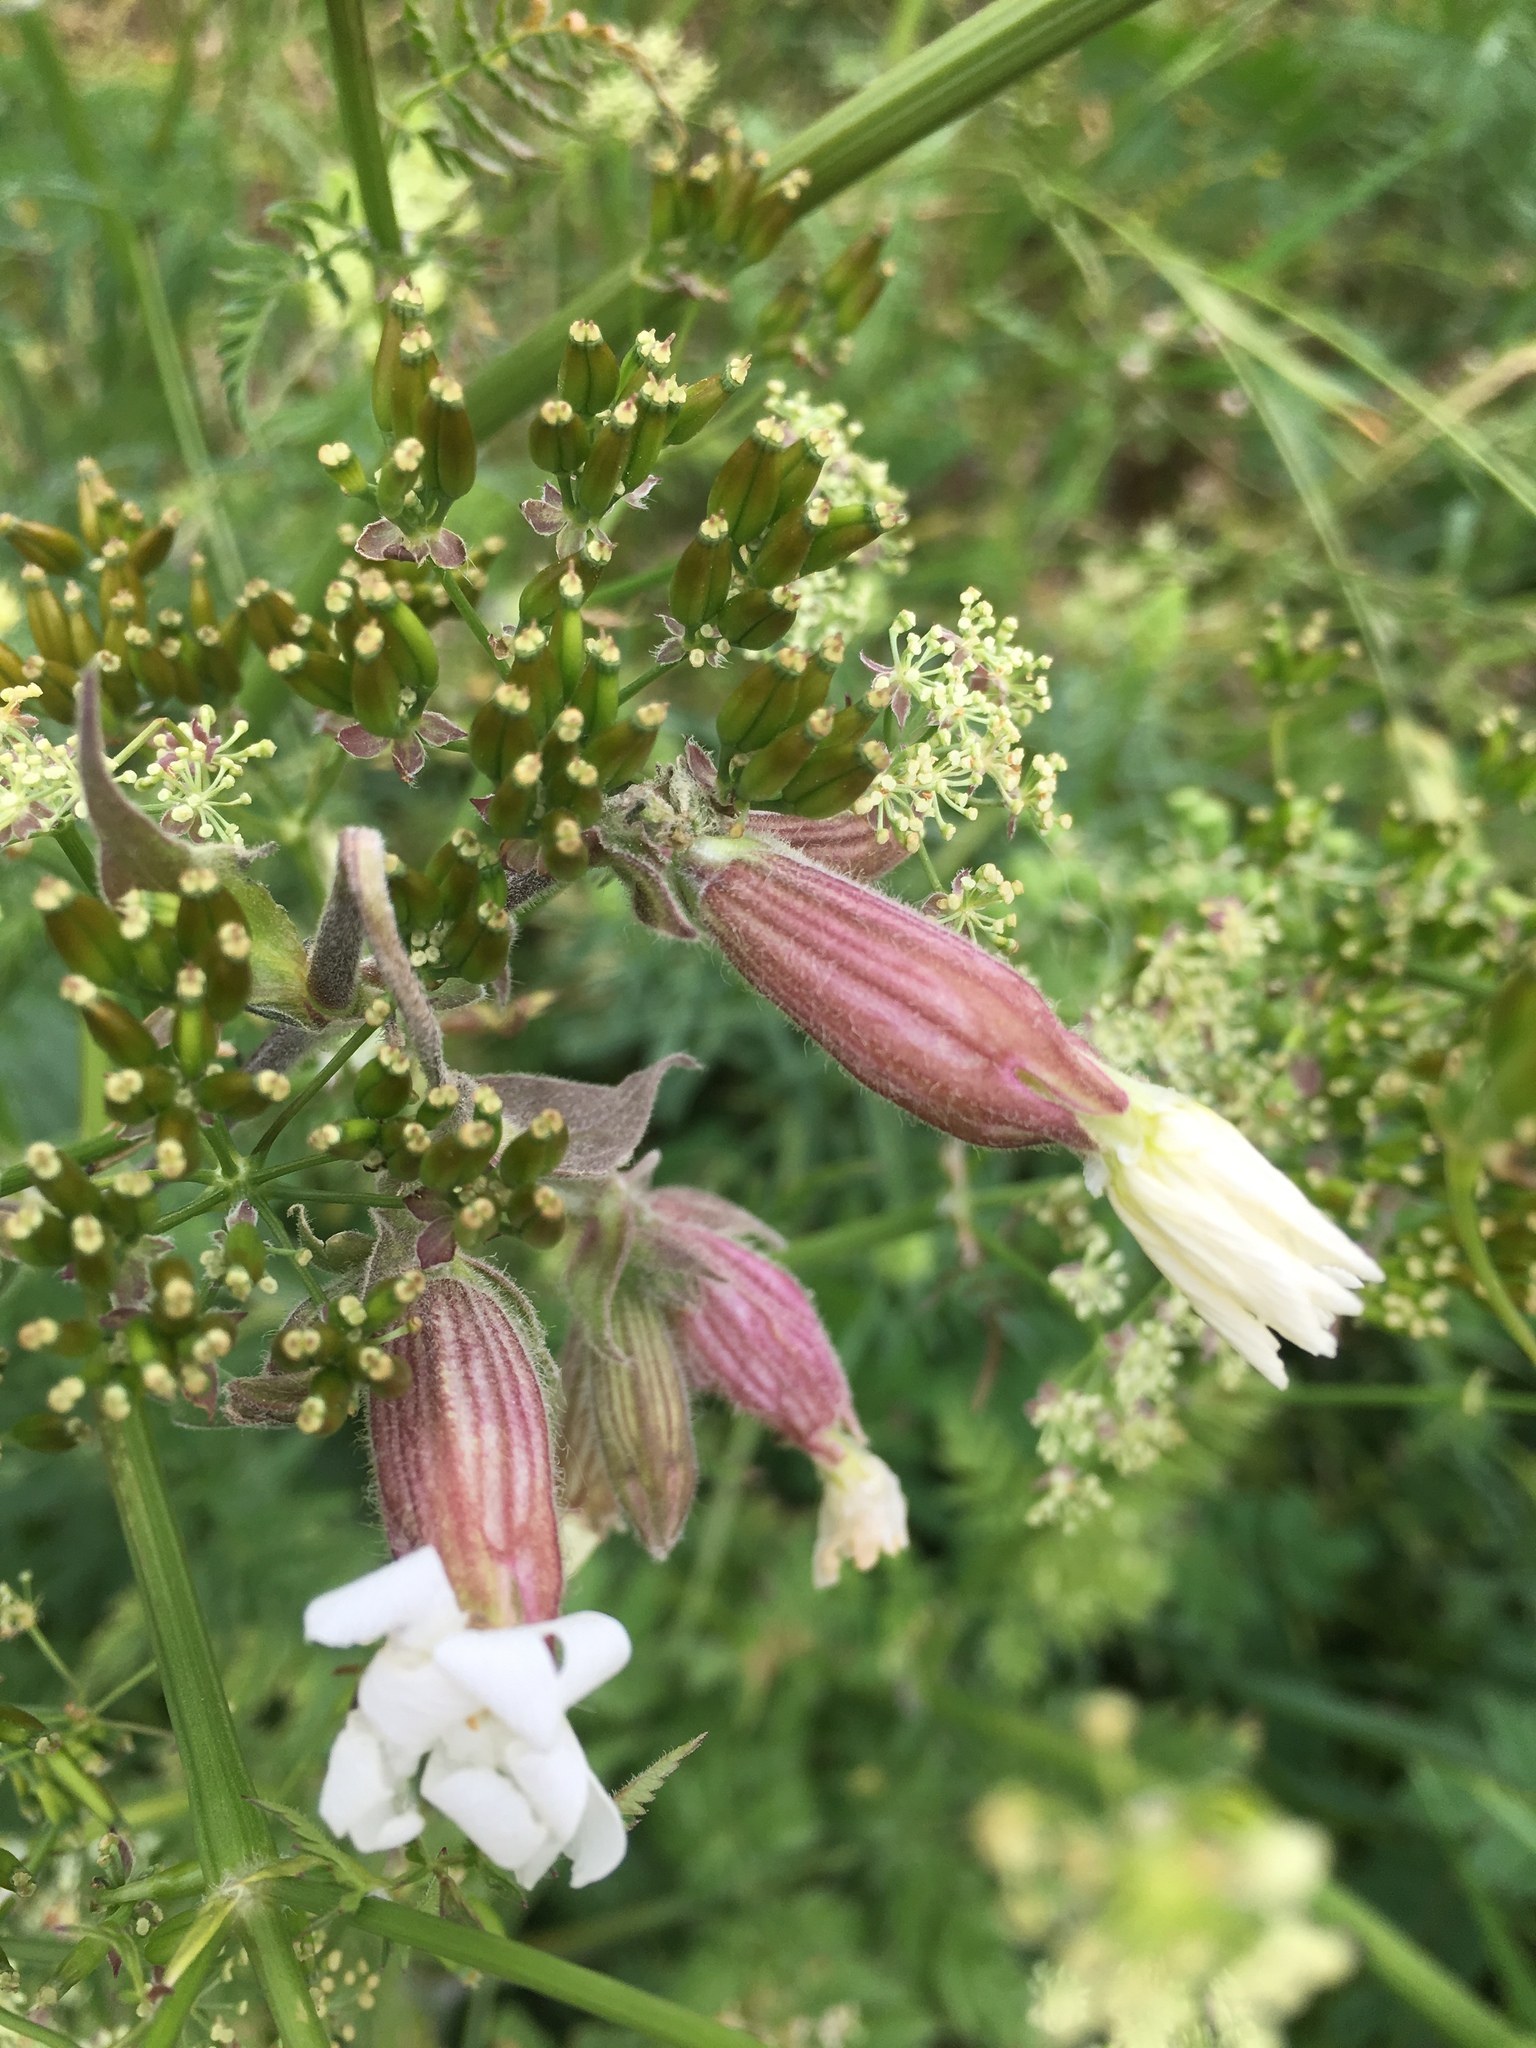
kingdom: Plantae
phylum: Tracheophyta
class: Magnoliopsida
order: Caryophyllales
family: Caryophyllaceae
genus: Silene
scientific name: Silene latifolia
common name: White campion
